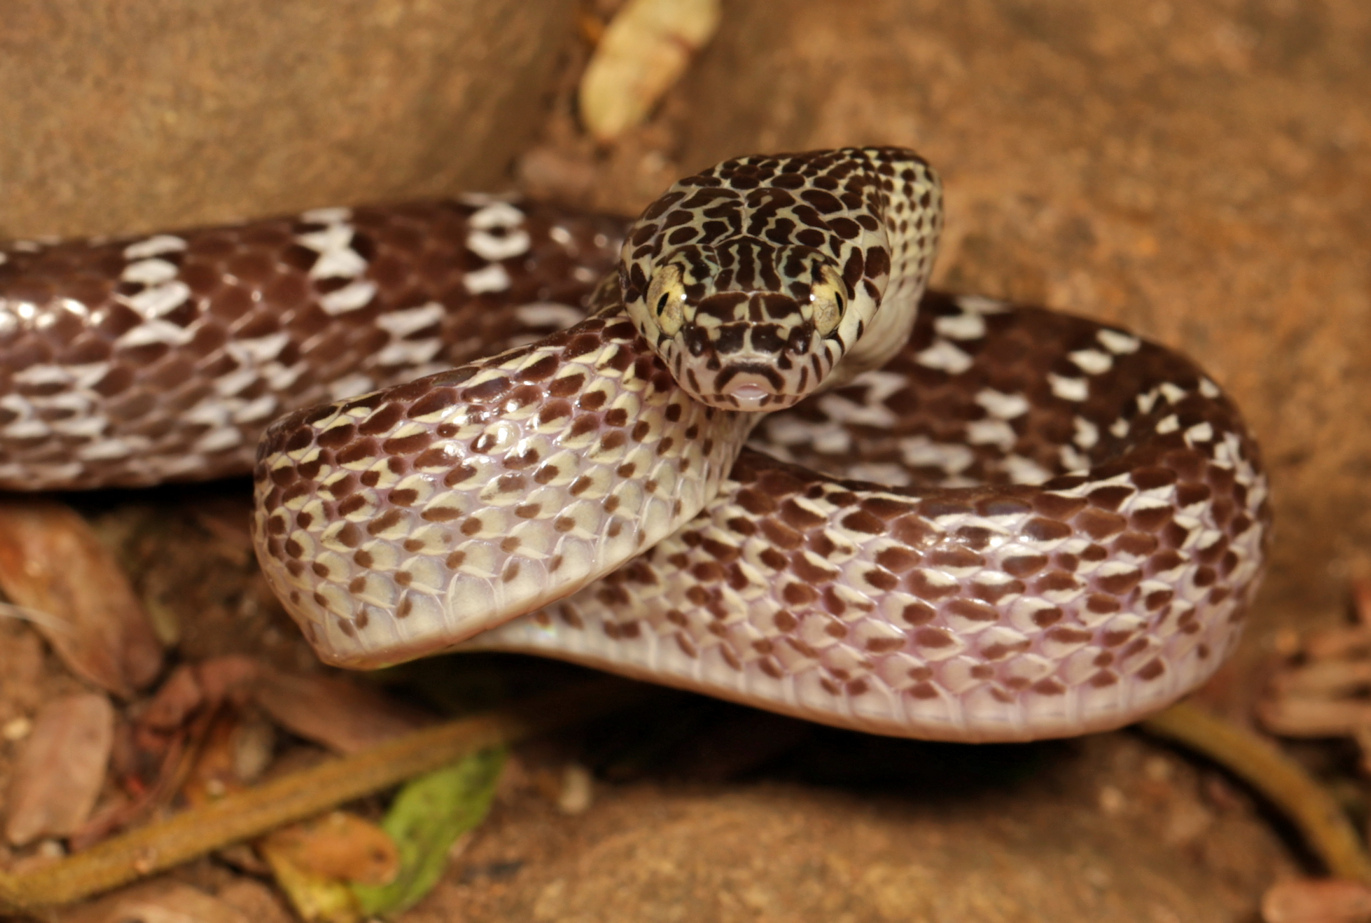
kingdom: Animalia
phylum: Chordata
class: Squamata
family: Colubridae
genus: Dipsadoboa
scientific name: Dipsadoboa aulica
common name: Cross-barred snake
